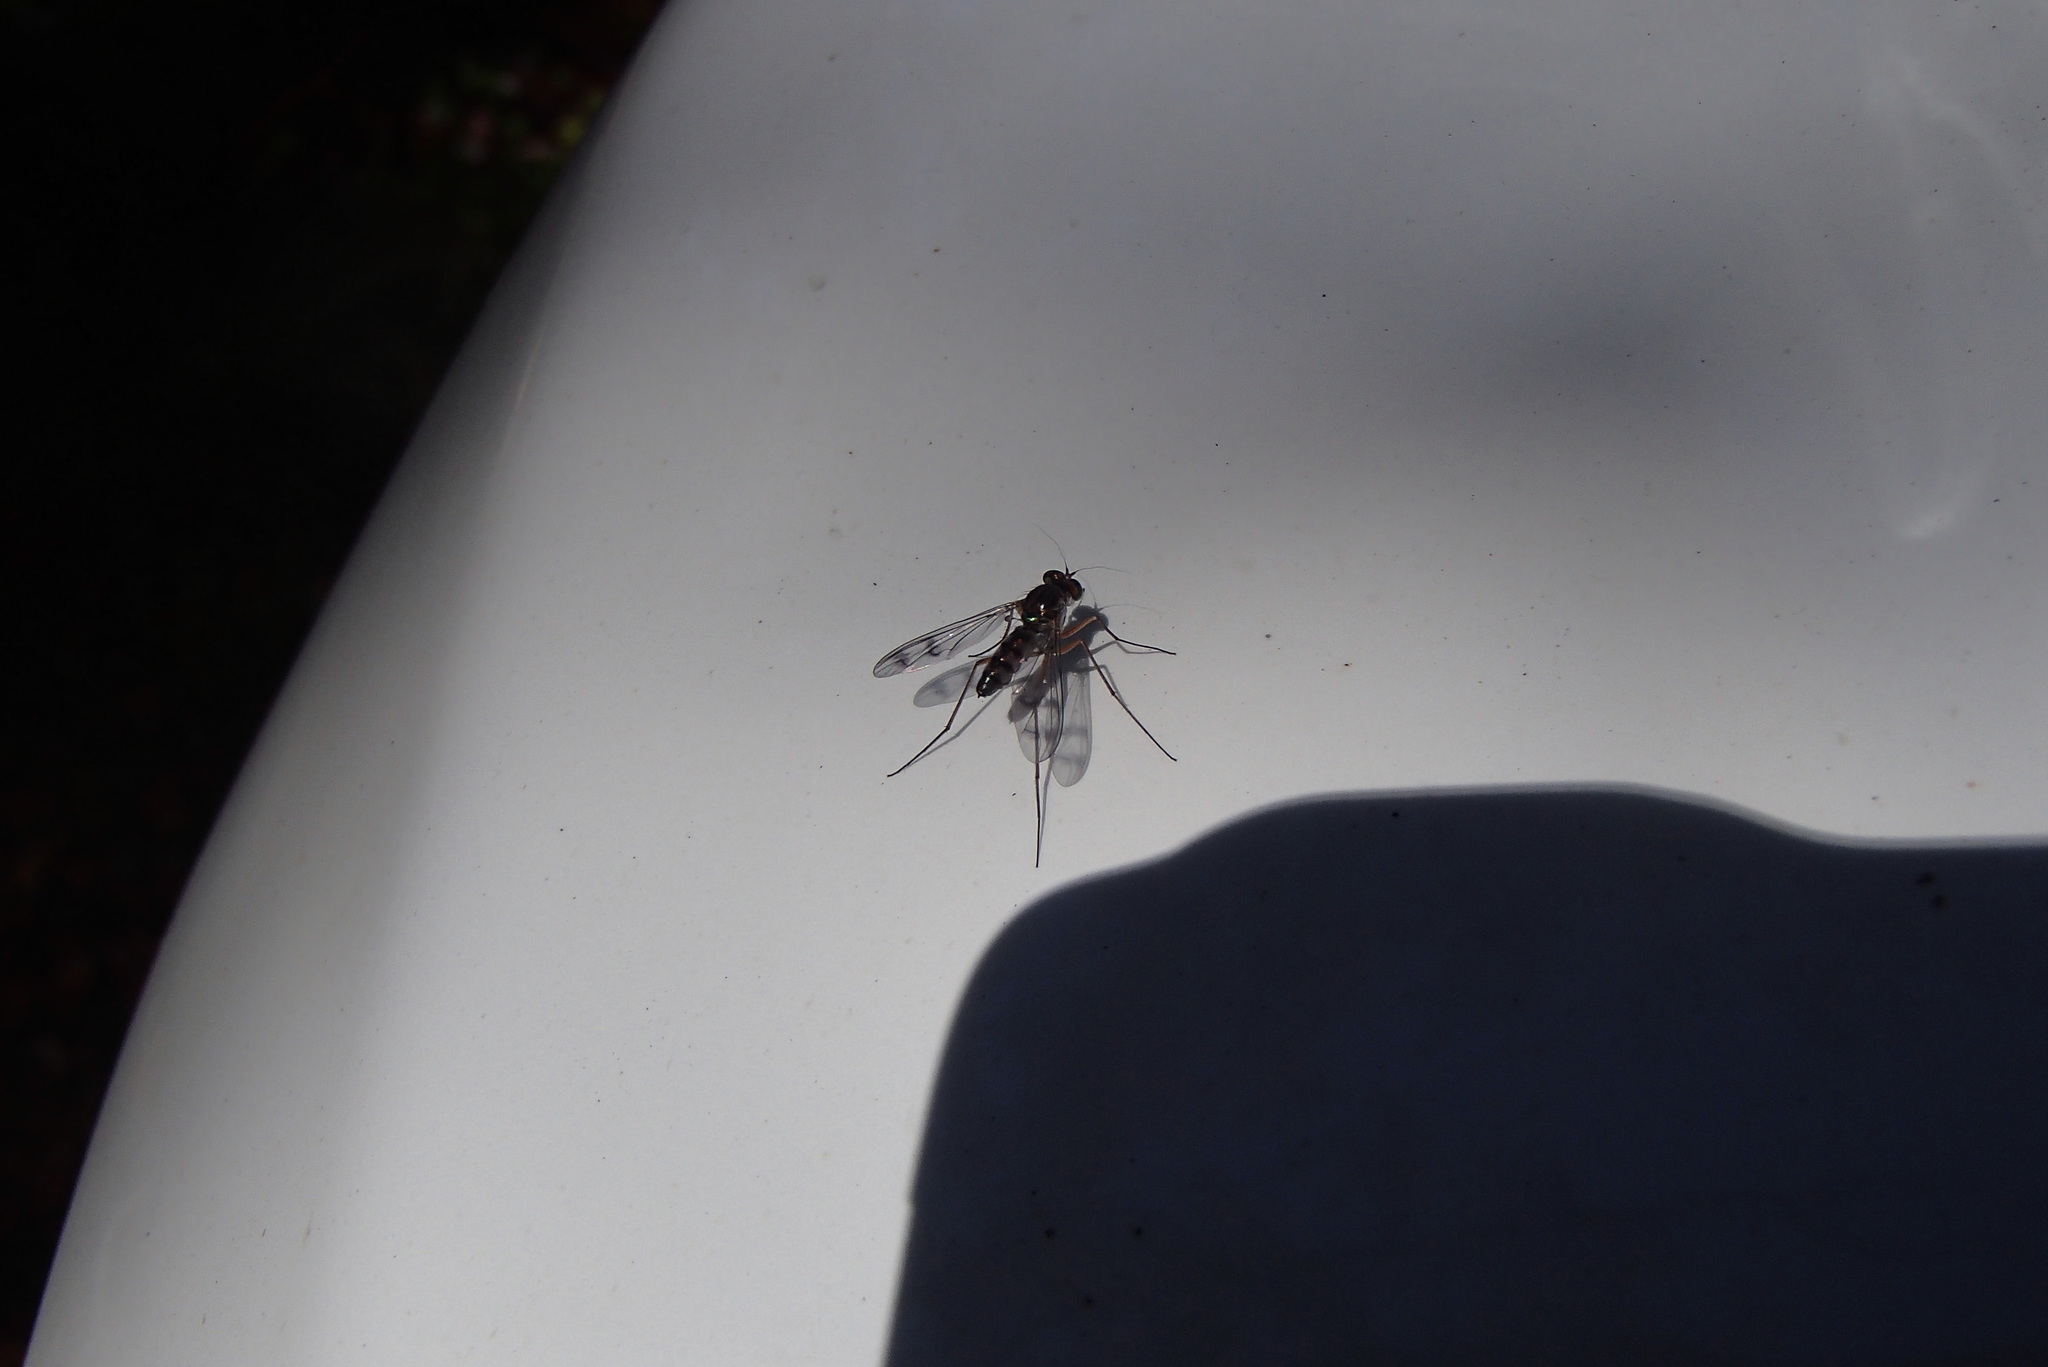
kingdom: Animalia
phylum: Arthropoda
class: Insecta
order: Diptera
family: Dolichopodidae
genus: Heteropsilopus
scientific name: Heteropsilopus squamifer
